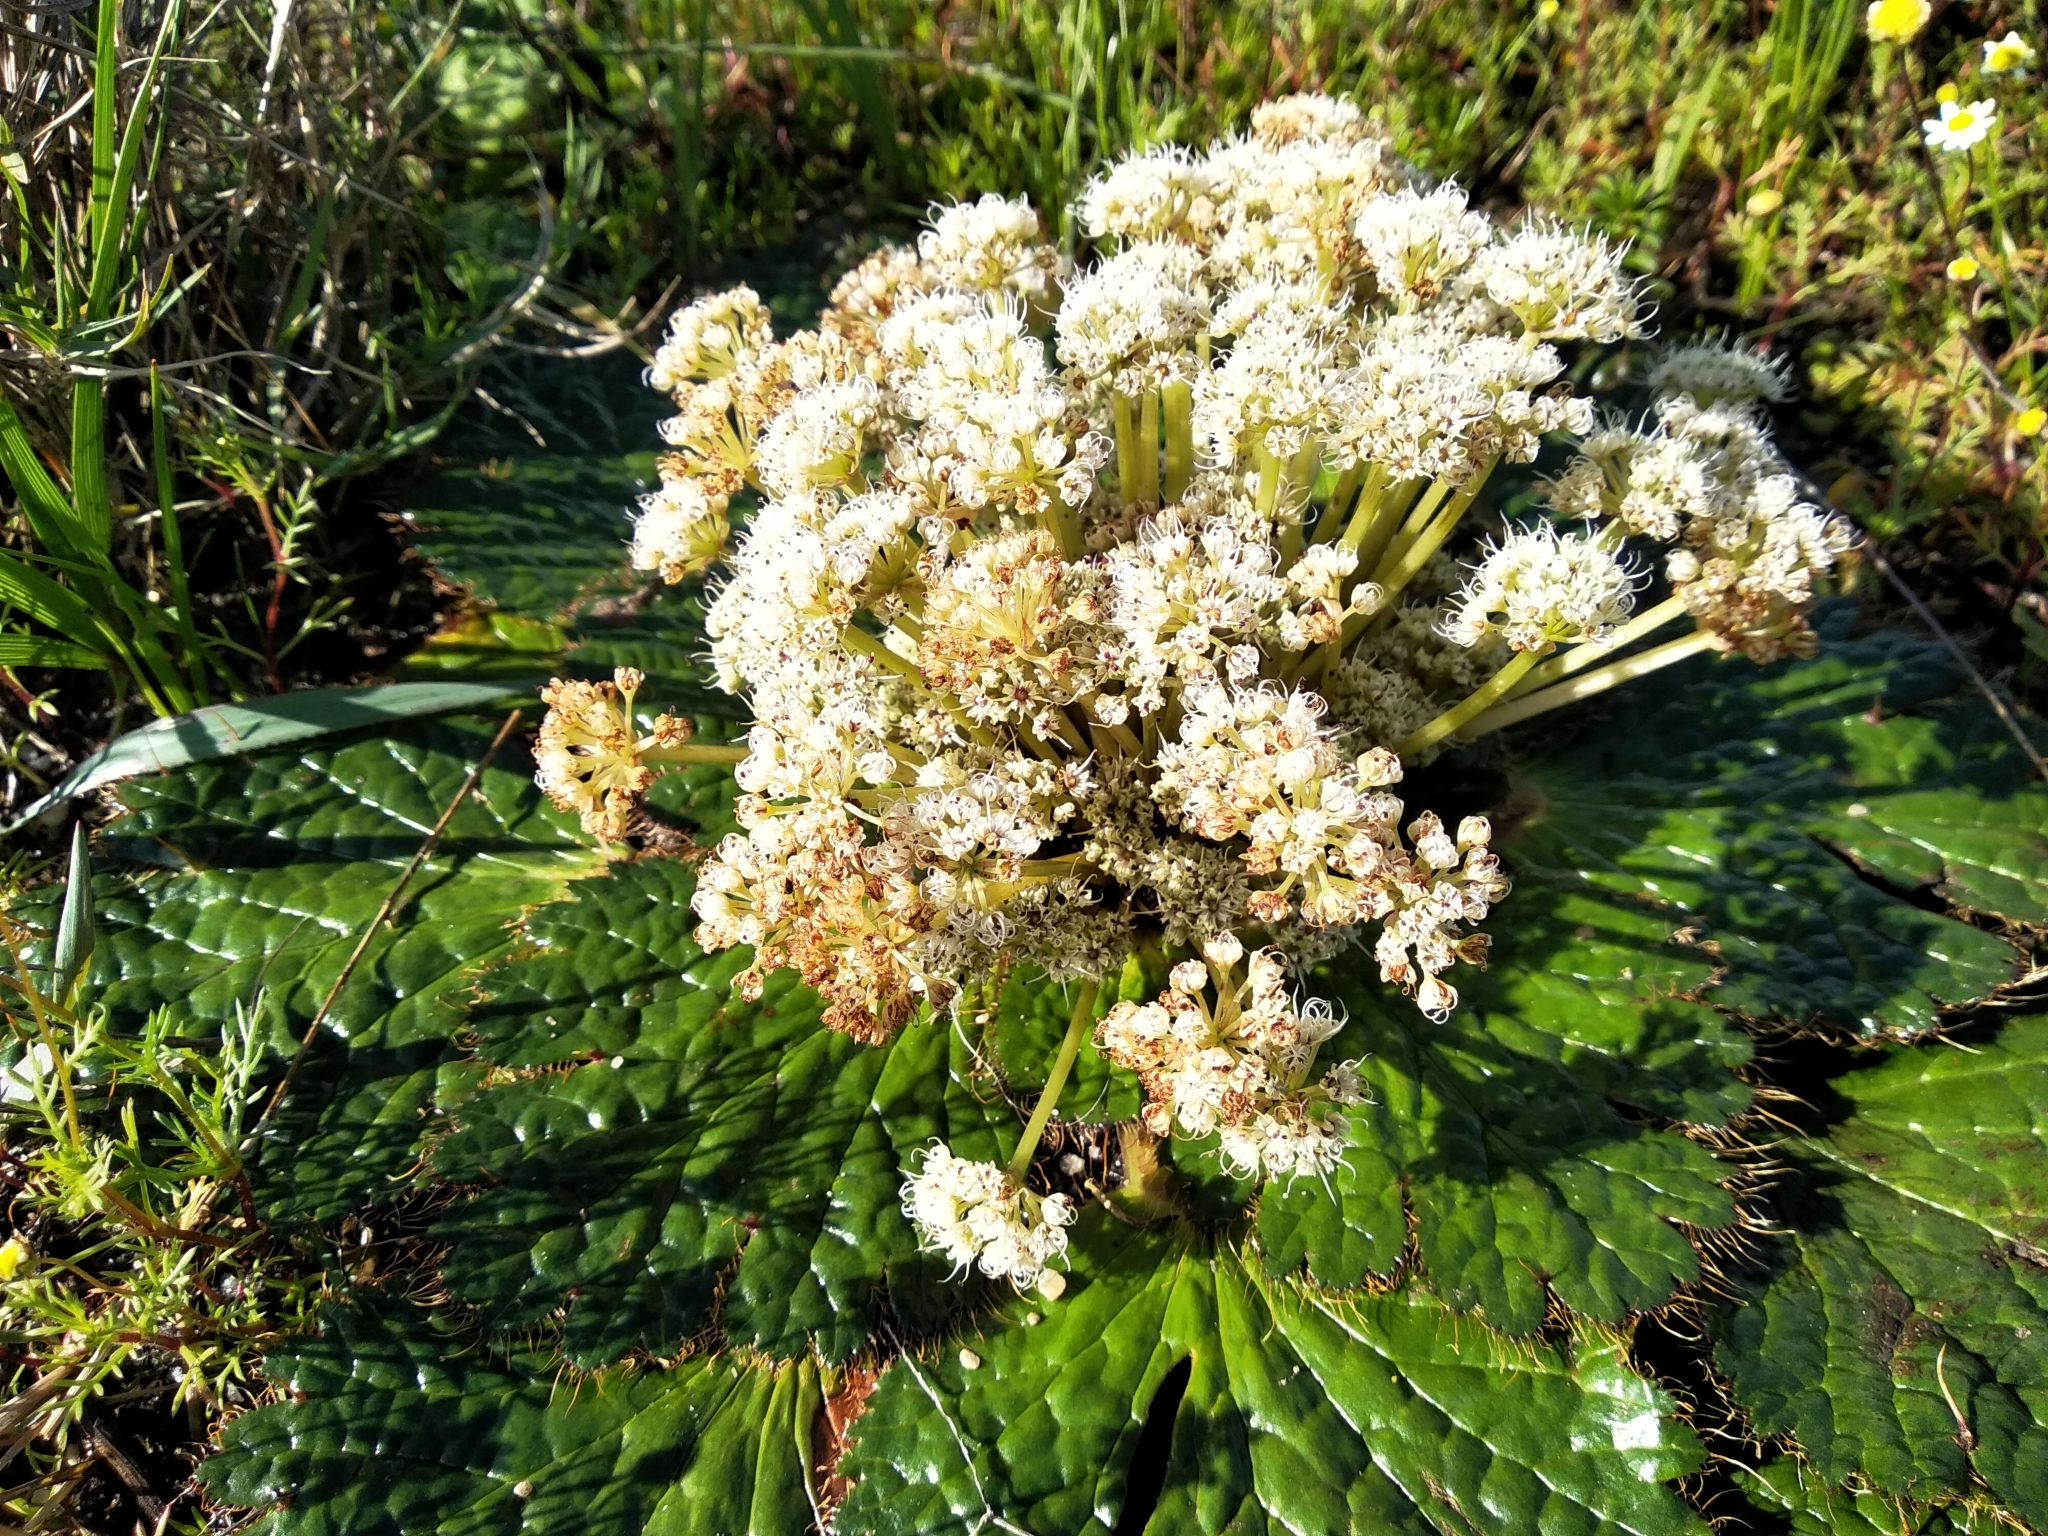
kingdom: Plantae
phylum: Tracheophyta
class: Magnoliopsida
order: Apiales
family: Apiaceae
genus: Arctopus
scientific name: Arctopus echinatus
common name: Platdoring
